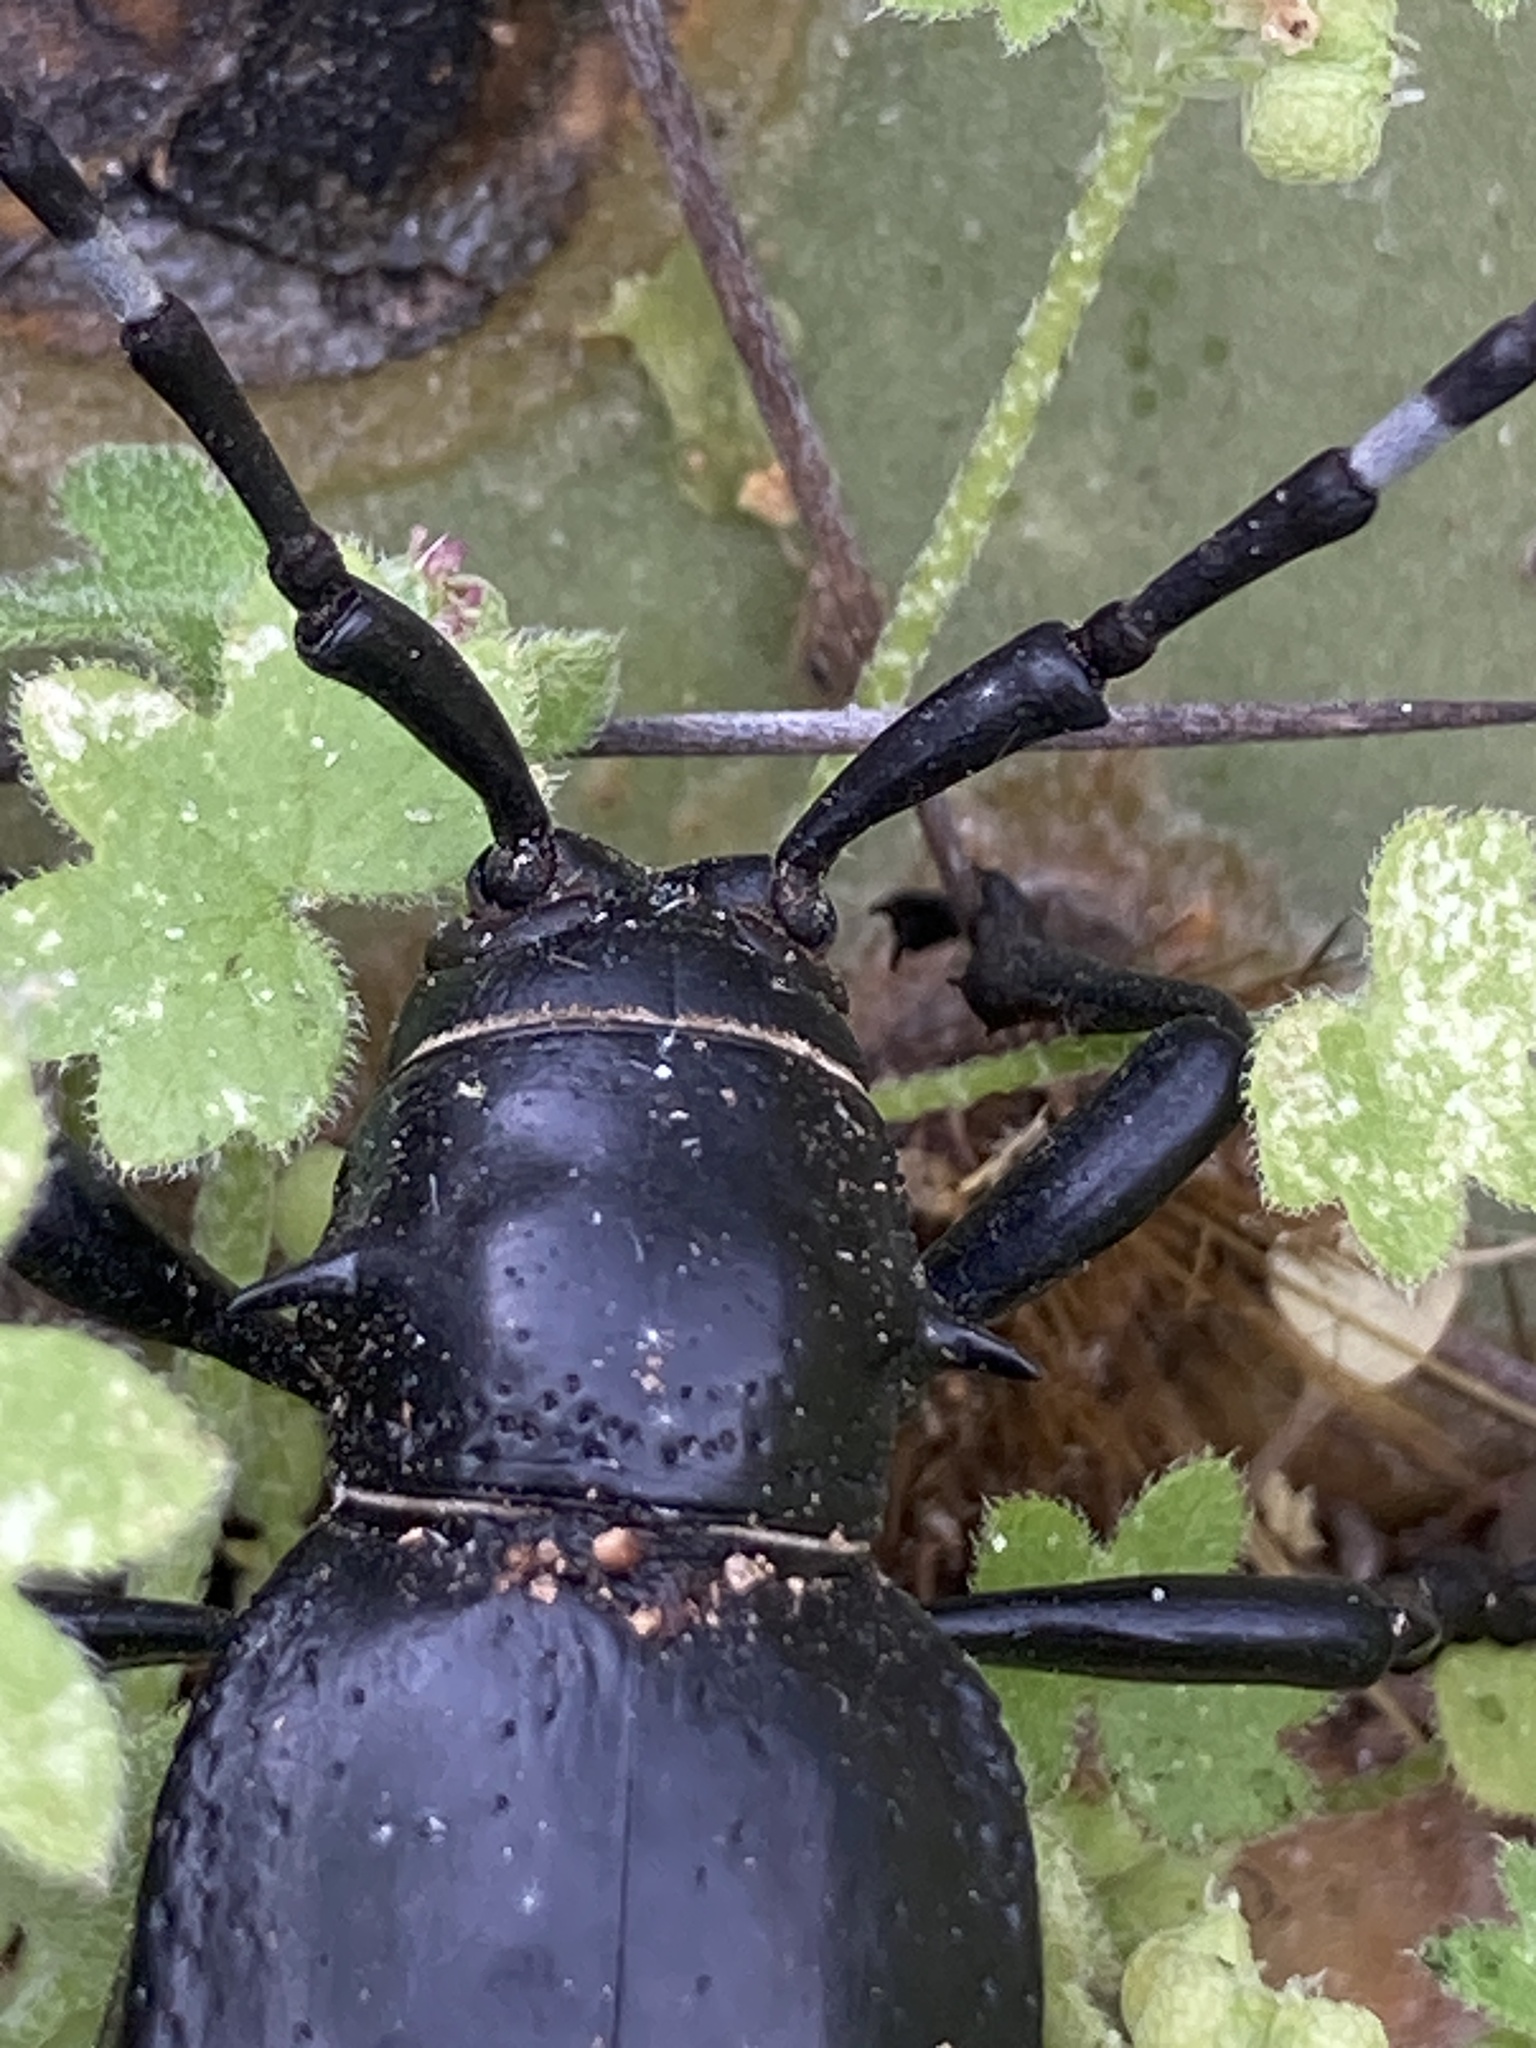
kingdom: Animalia
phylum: Arthropoda
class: Insecta
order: Coleoptera
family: Cerambycidae
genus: Moneilema
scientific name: Moneilema gigas
